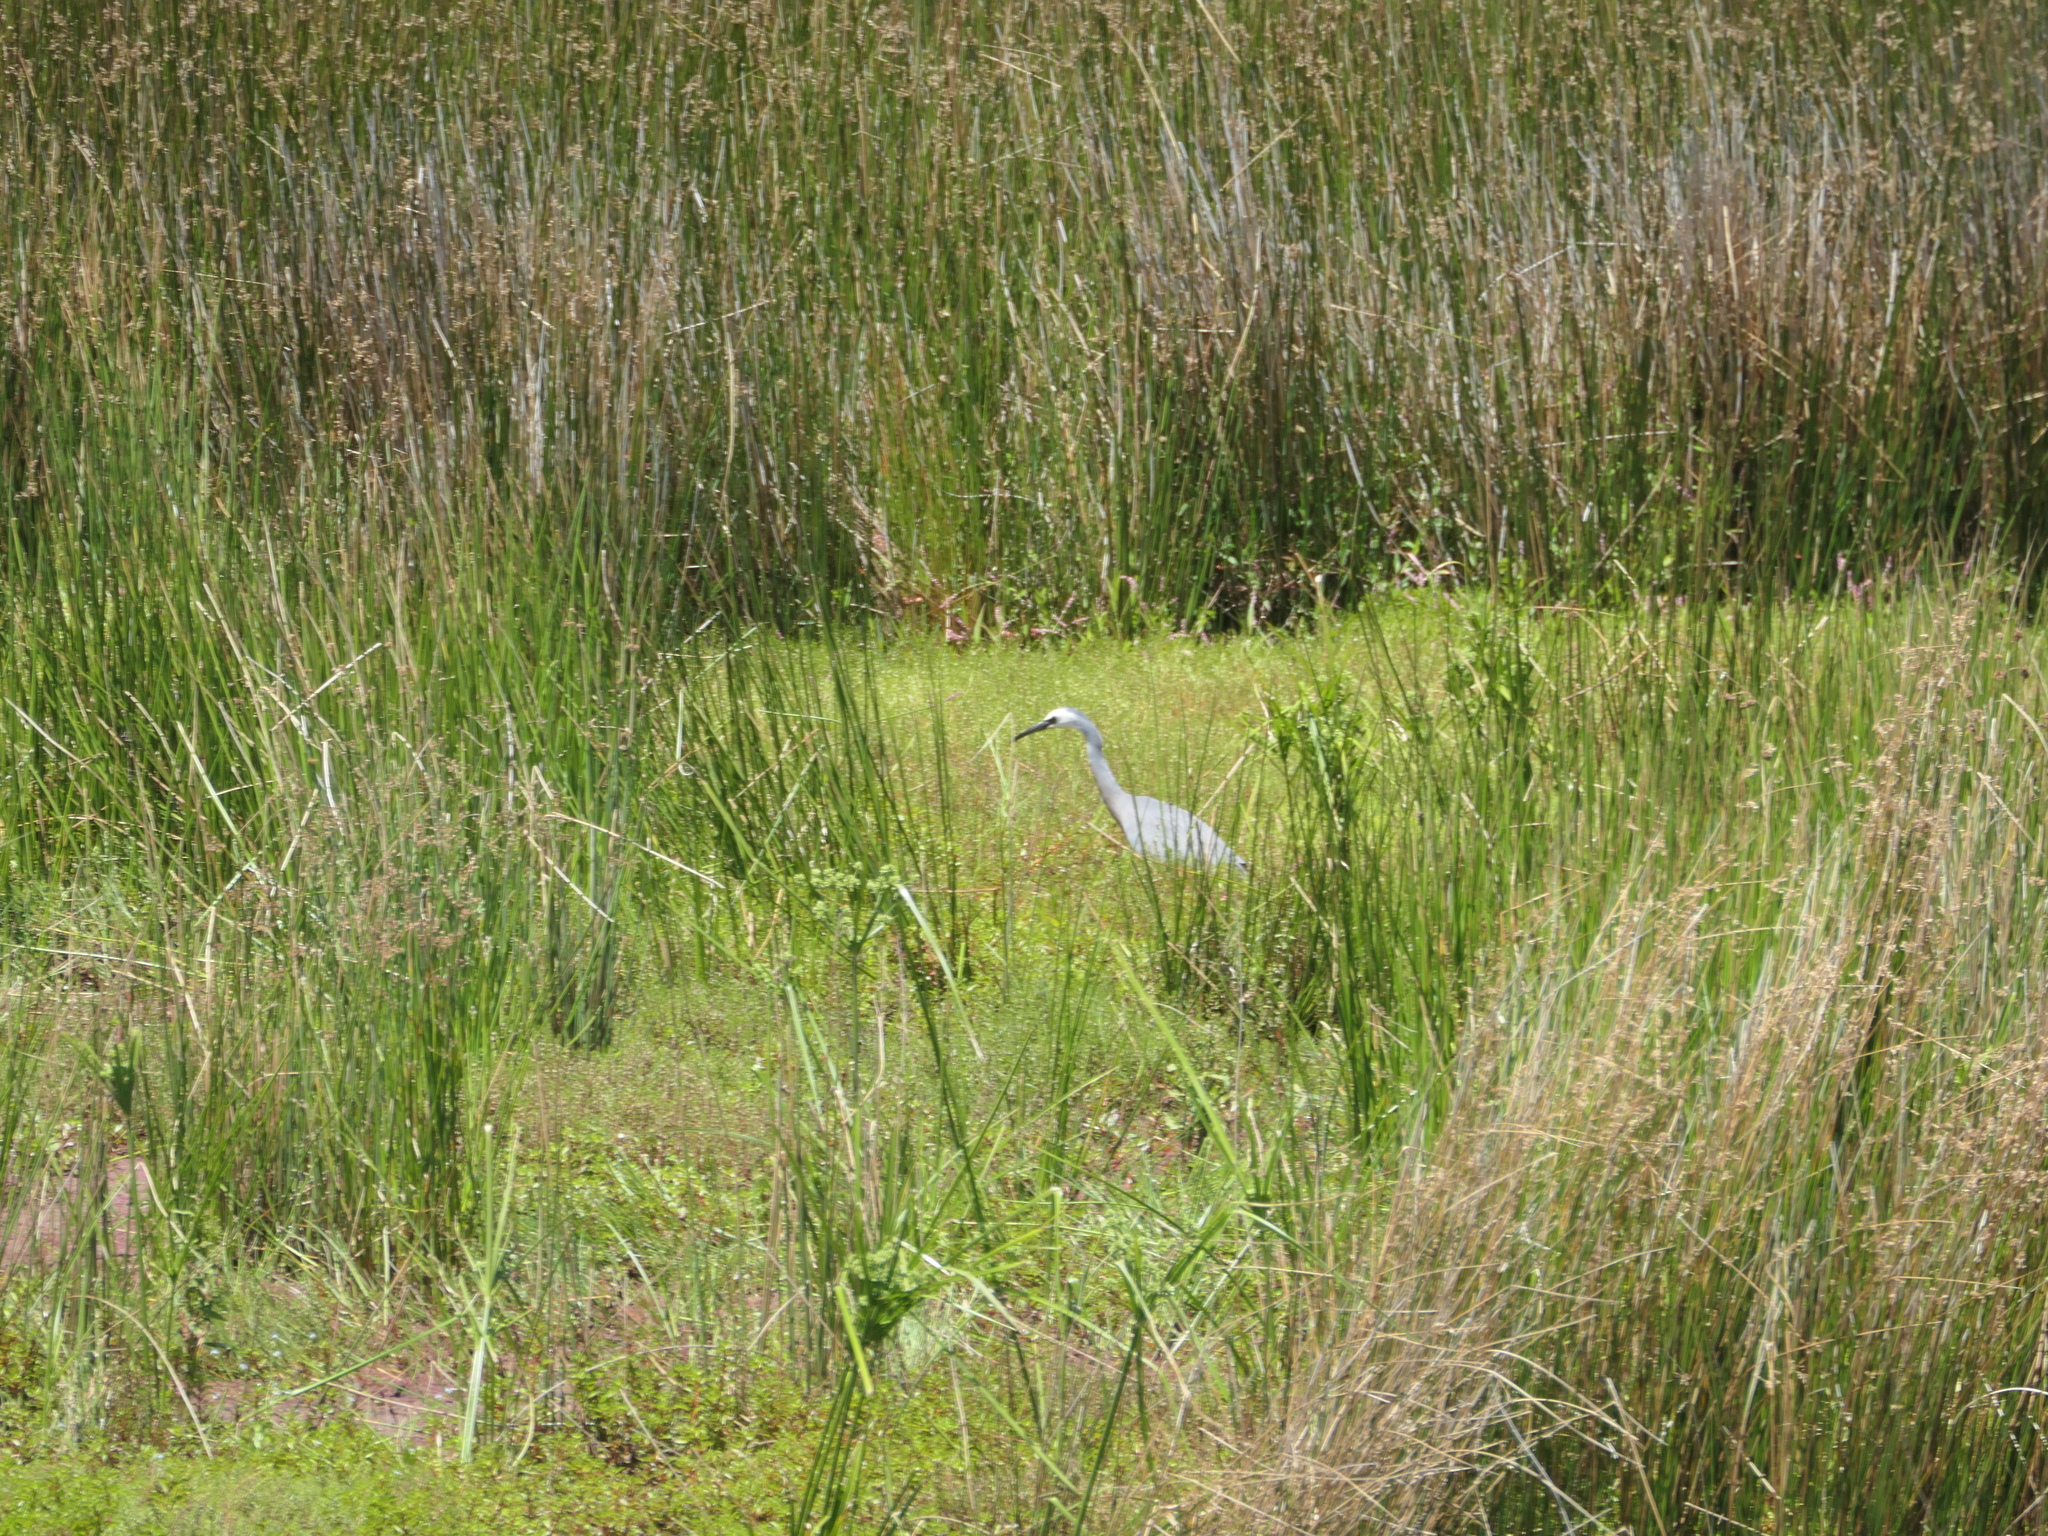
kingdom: Animalia
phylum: Chordata
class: Aves
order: Pelecaniformes
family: Ardeidae
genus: Egretta
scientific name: Egretta novaehollandiae
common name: White-faced heron
